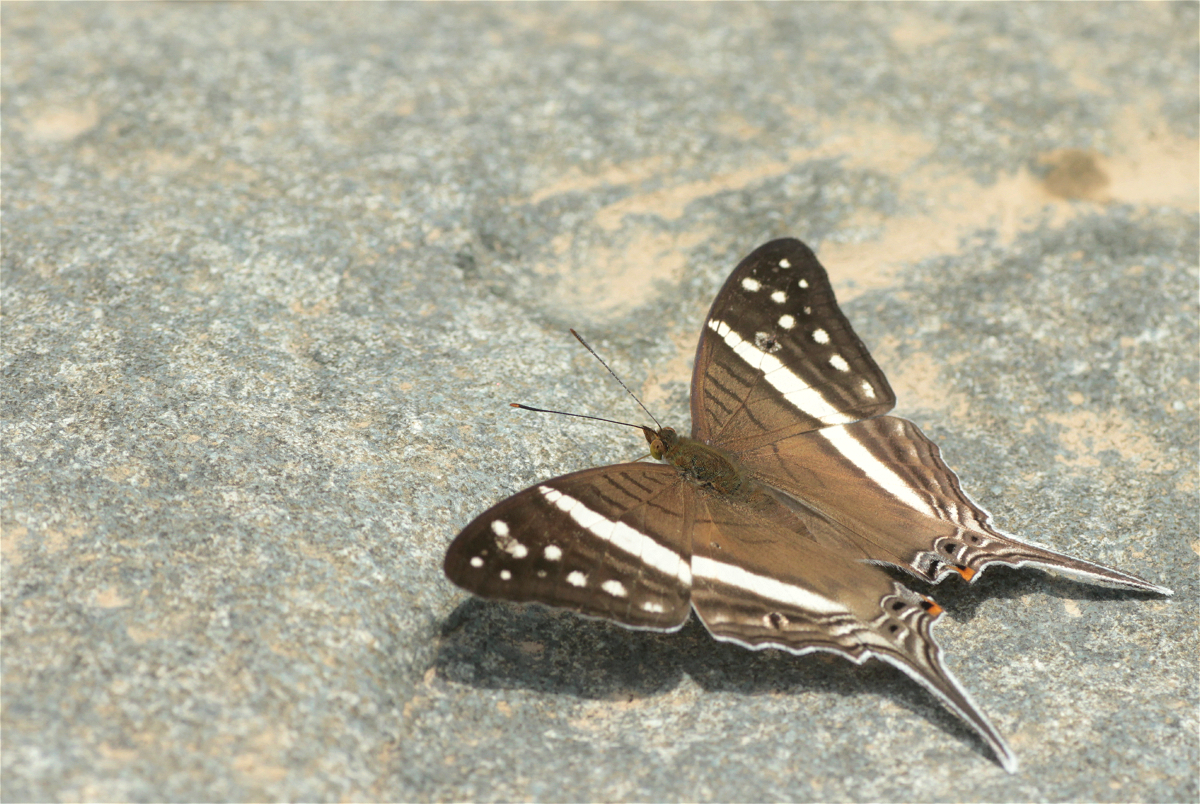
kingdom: Animalia
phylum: Arthropoda
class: Insecta
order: Lepidoptera
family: Nymphalidae
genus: Marpesia
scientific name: Marpesia crethon
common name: Crethon daggerwing
